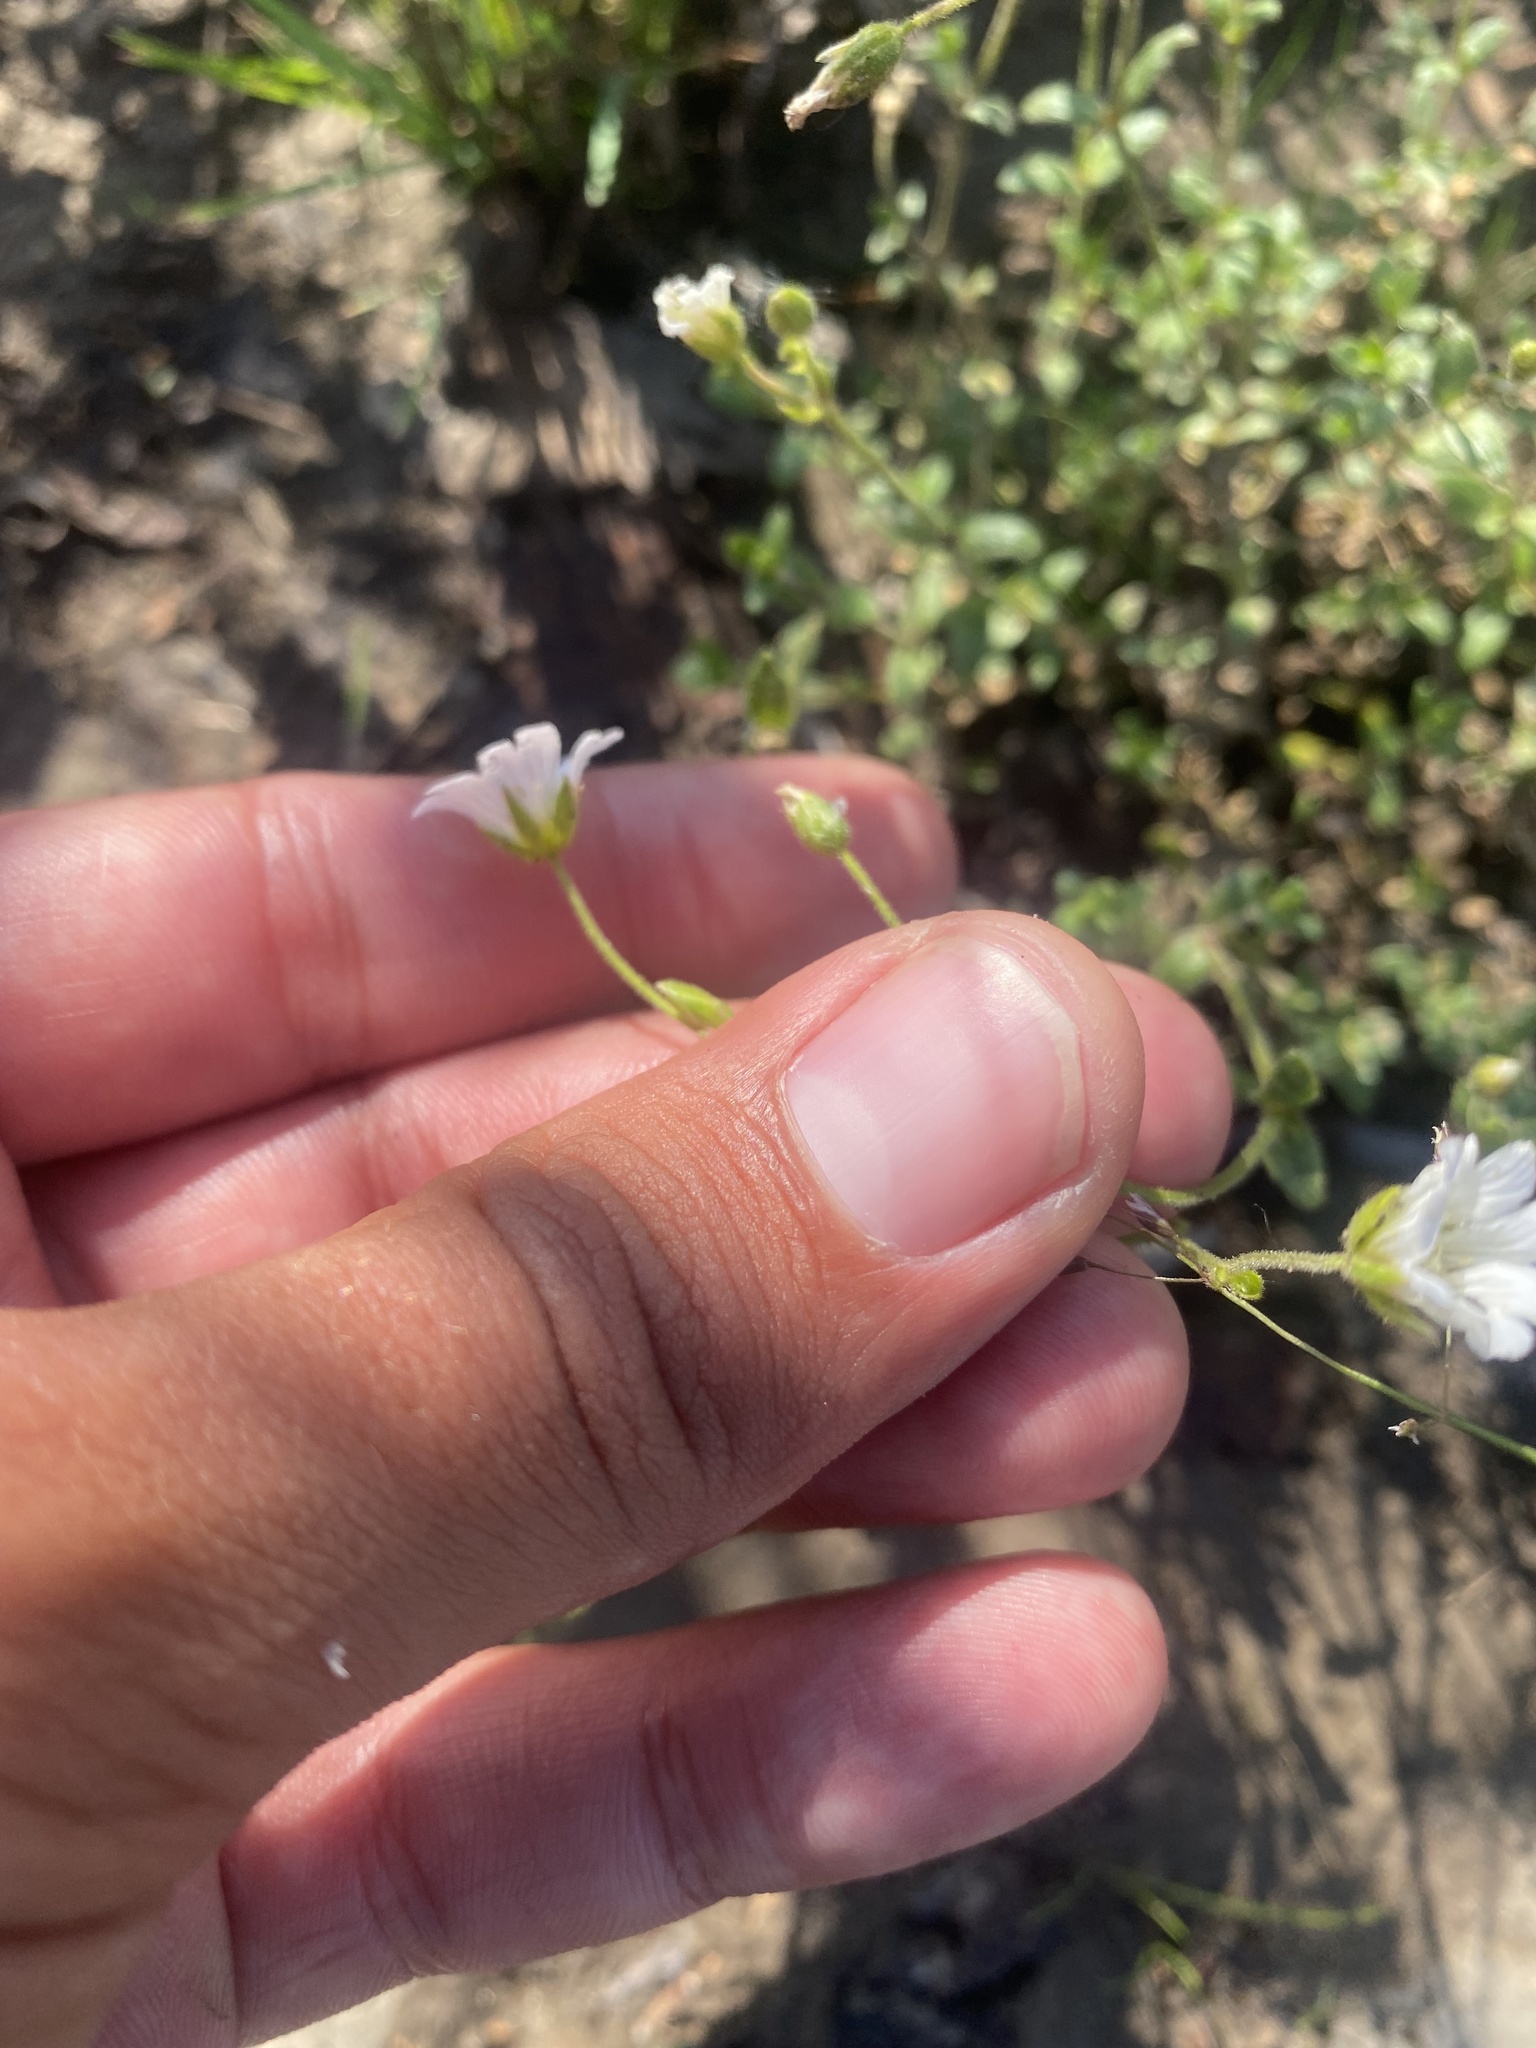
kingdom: Plantae
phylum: Tracheophyta
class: Magnoliopsida
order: Caryophyllales
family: Caryophyllaceae
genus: Cerastium
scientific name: Cerastium regelii
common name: Regel's chickweed
